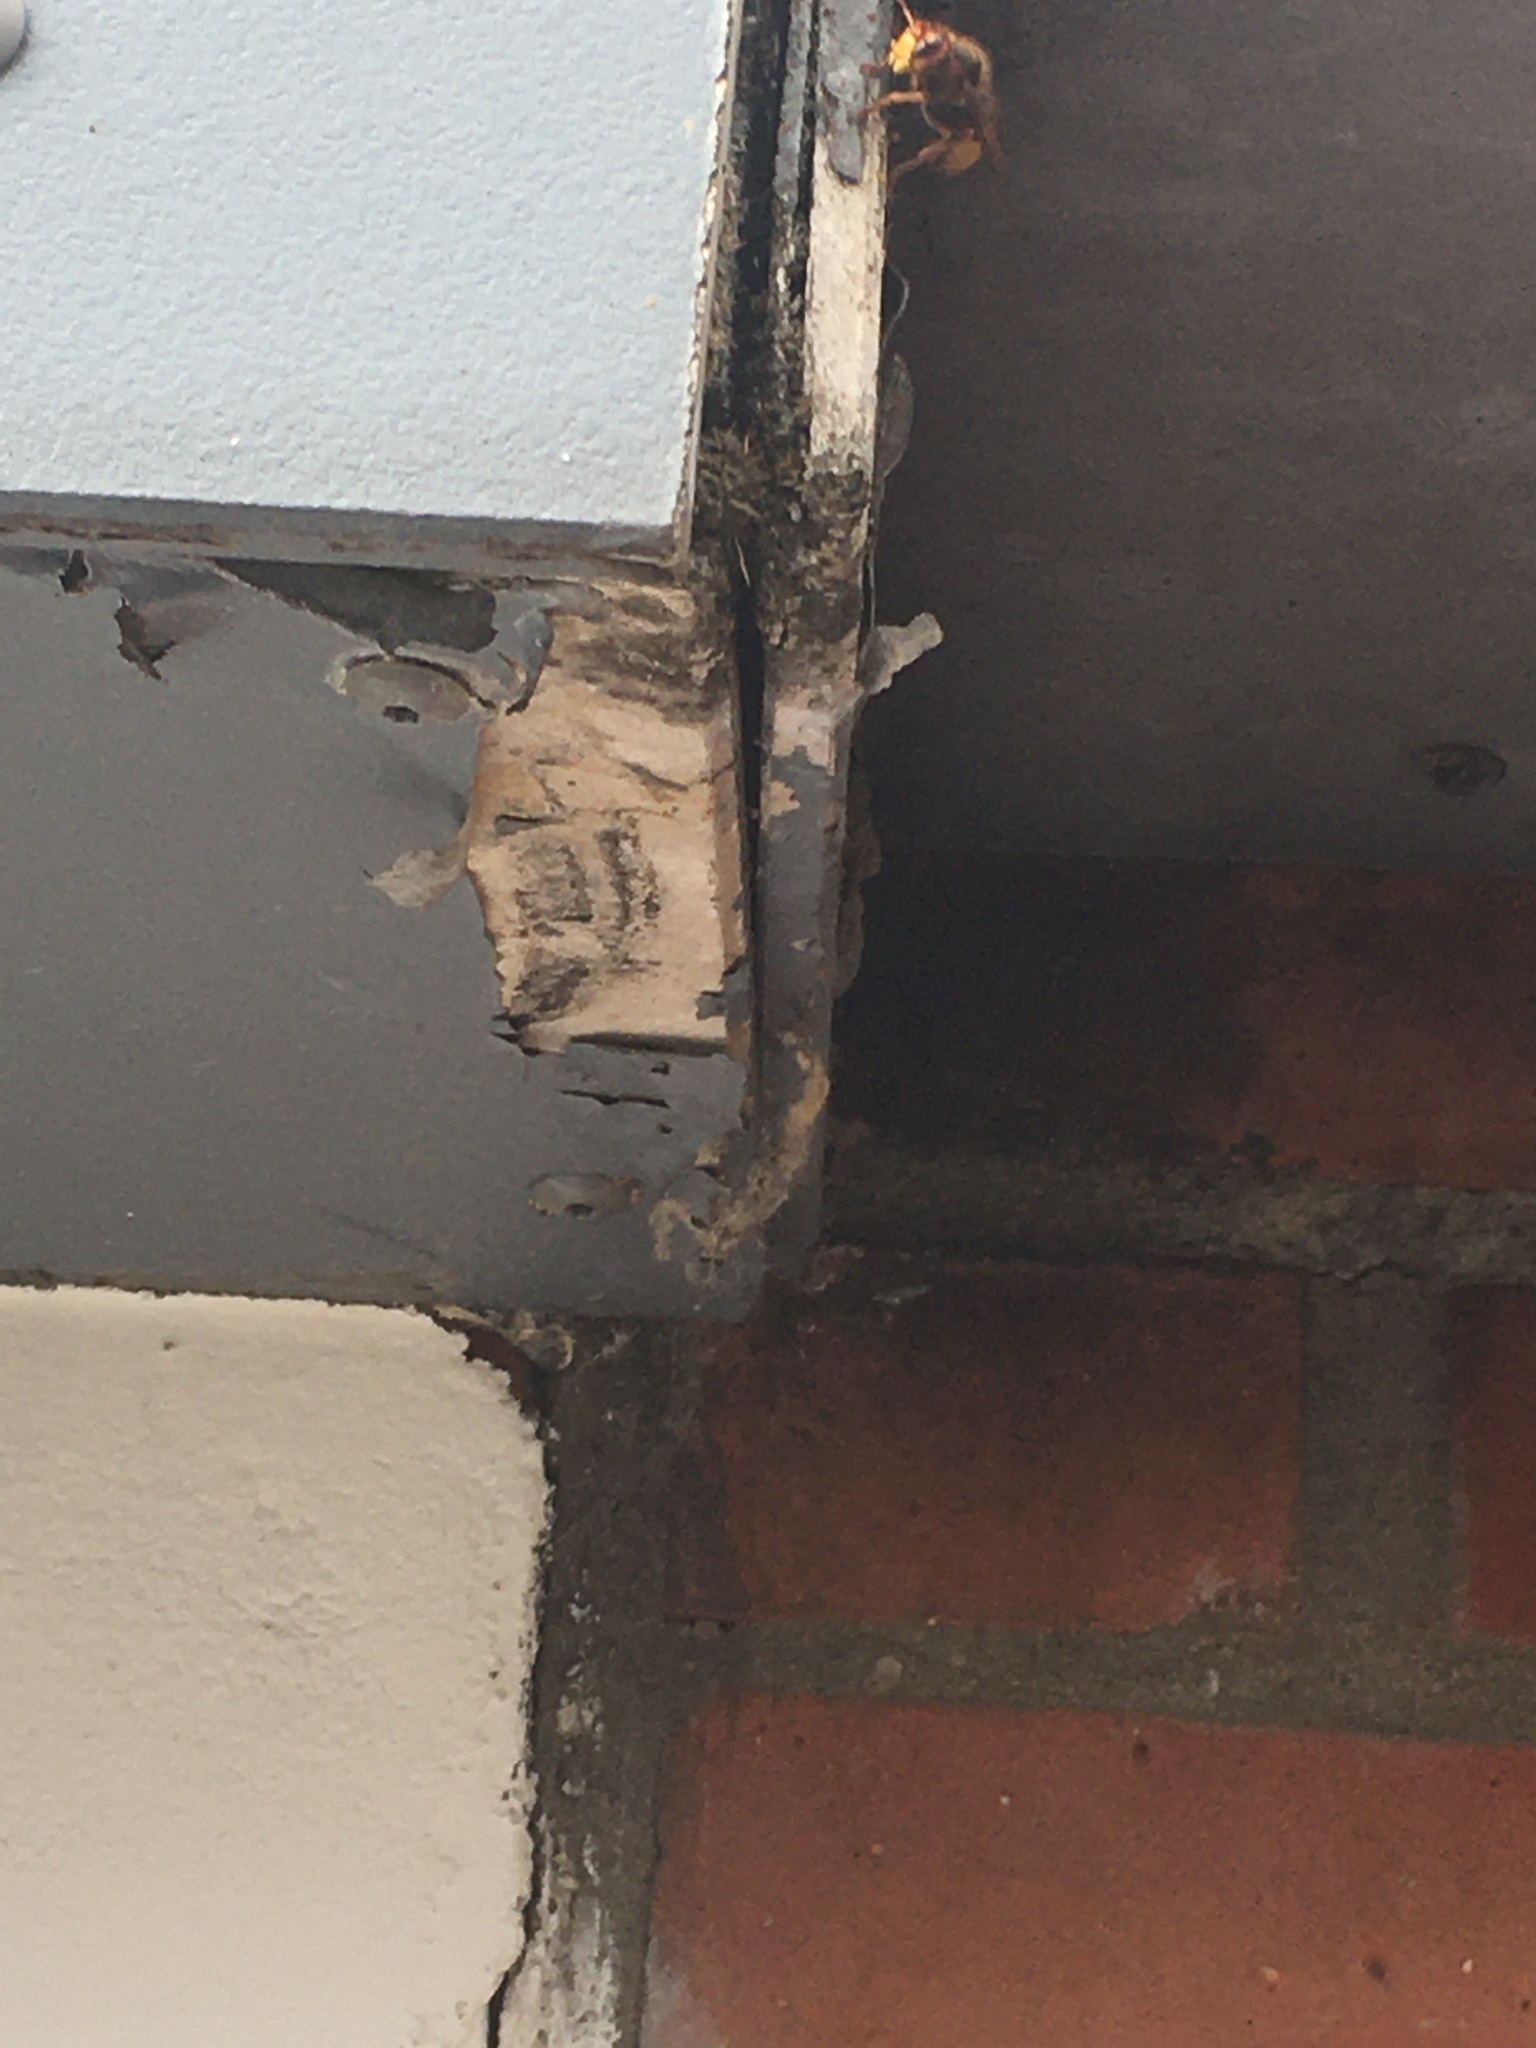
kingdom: Animalia
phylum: Arthropoda
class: Insecta
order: Hymenoptera
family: Vespidae
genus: Vespa
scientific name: Vespa crabro
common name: Hornet
